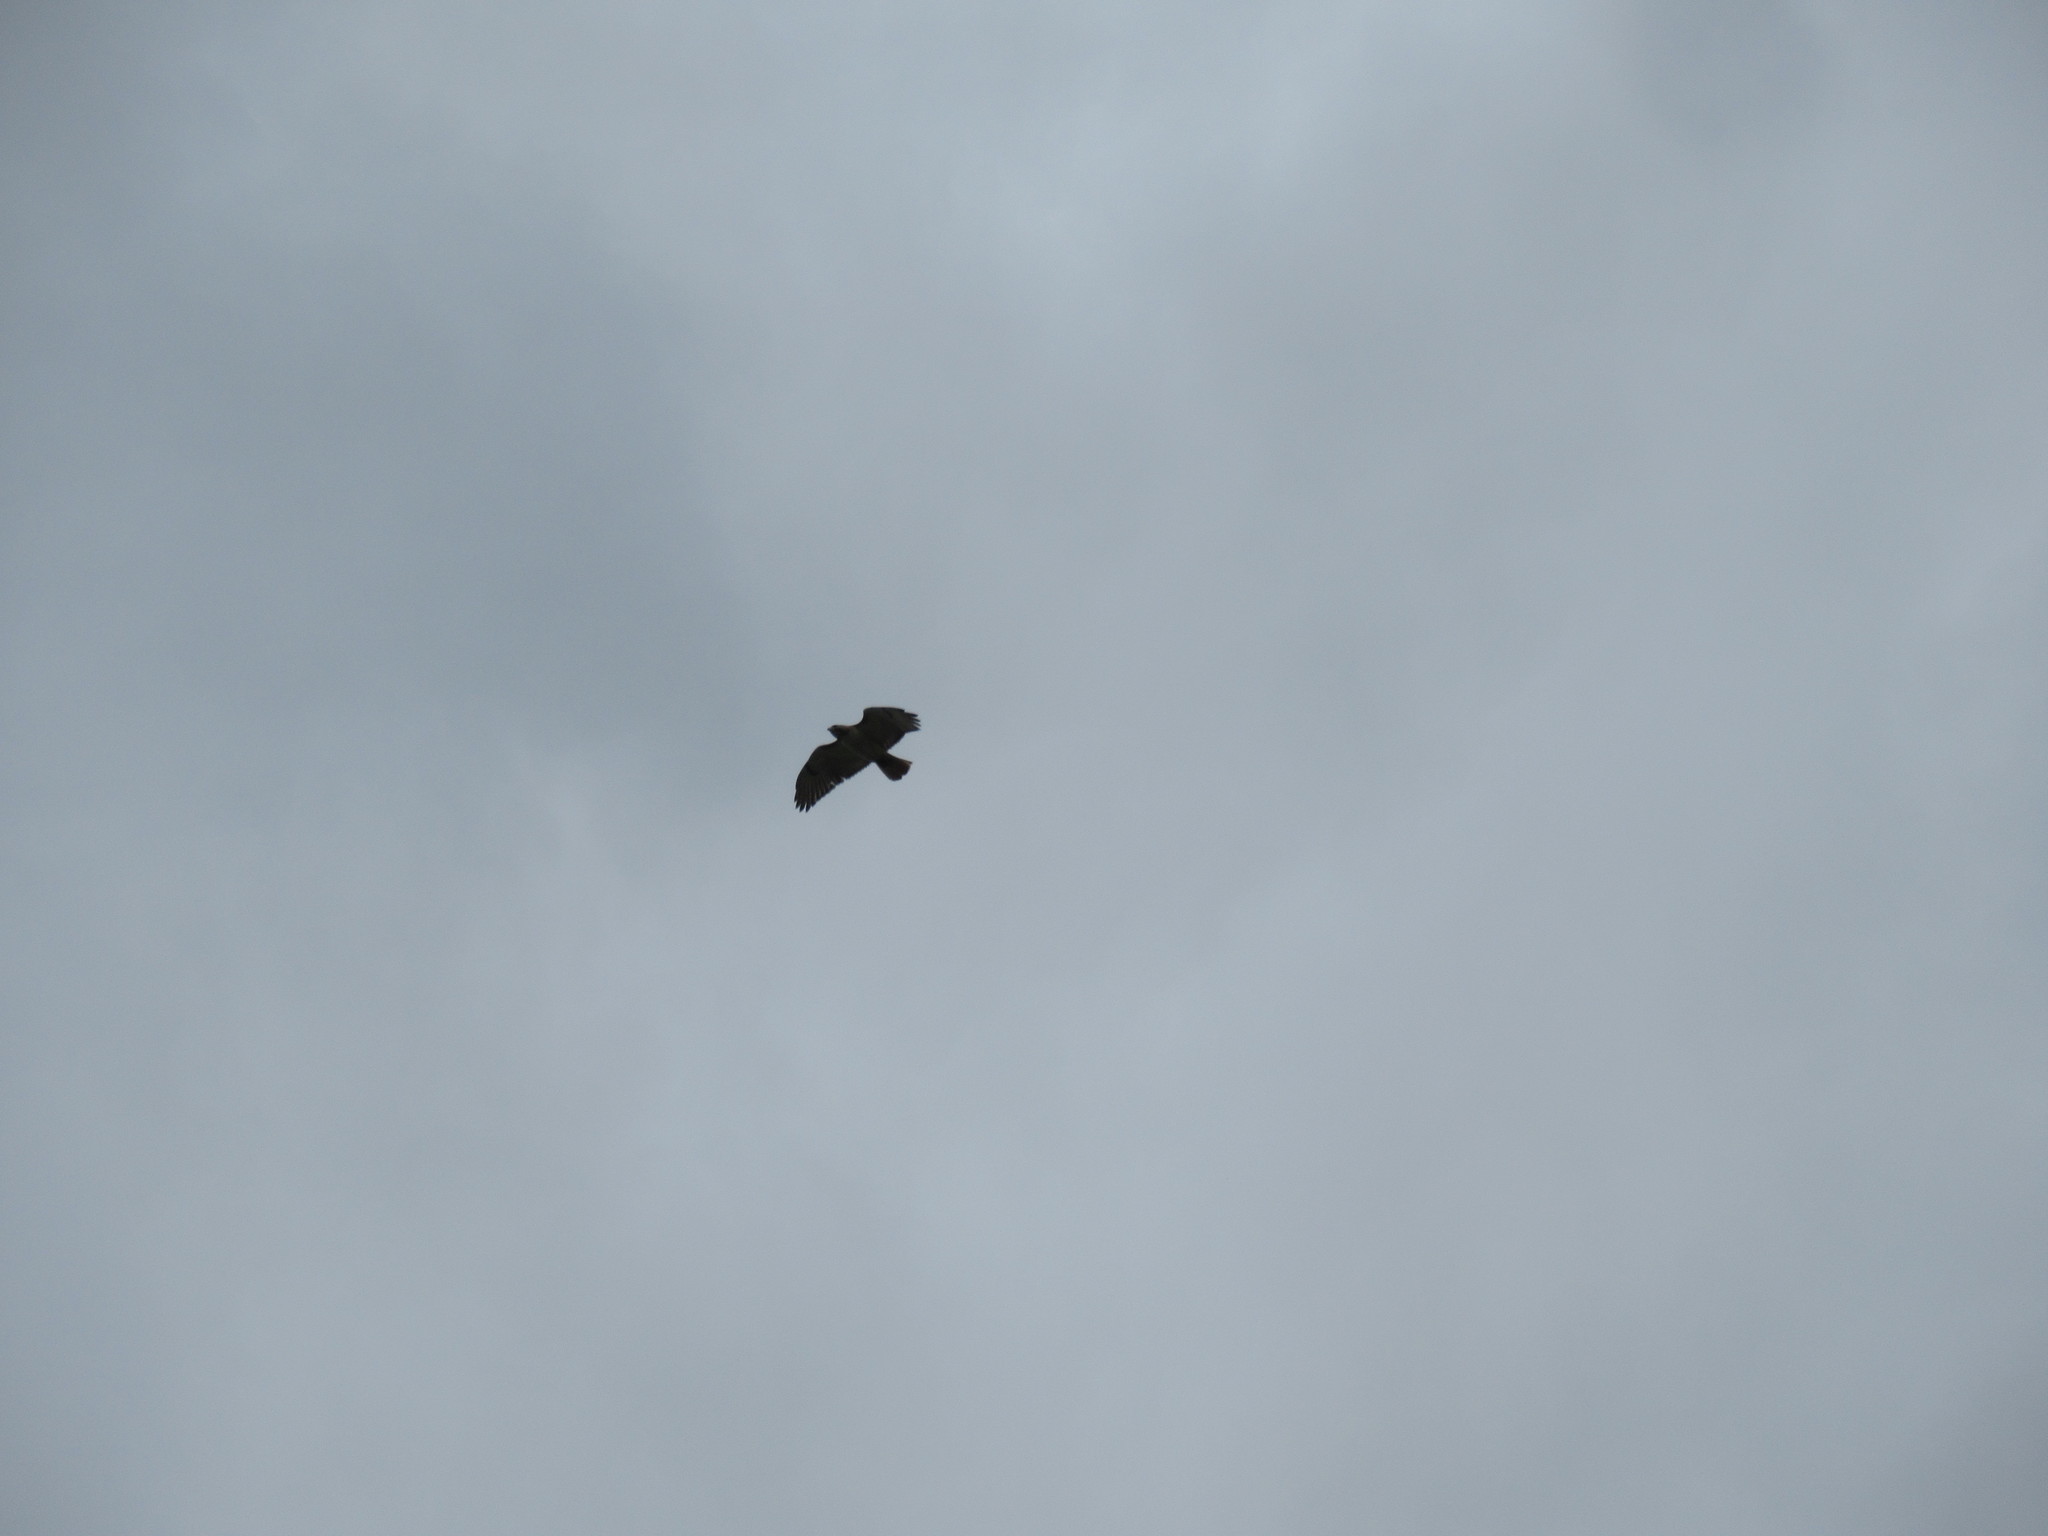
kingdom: Animalia
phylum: Chordata
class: Aves
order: Accipitriformes
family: Accipitridae
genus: Buteo
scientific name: Buteo jamaicensis
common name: Red-tailed hawk
